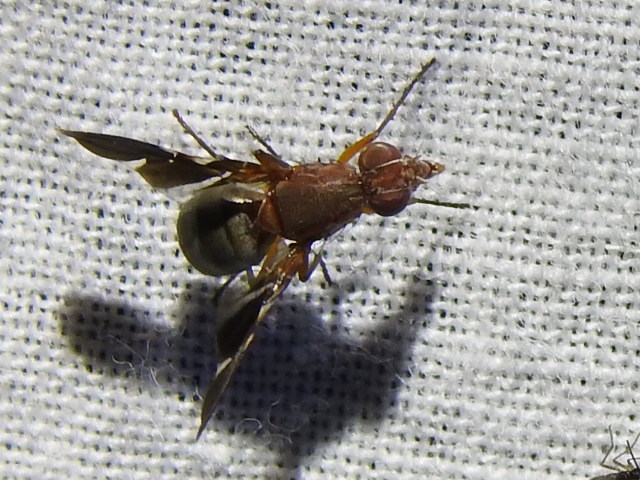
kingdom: Animalia
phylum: Arthropoda
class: Insecta
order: Diptera
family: Ulidiidae
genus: Delphinia
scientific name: Delphinia picta
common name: Common picture-winged fly
